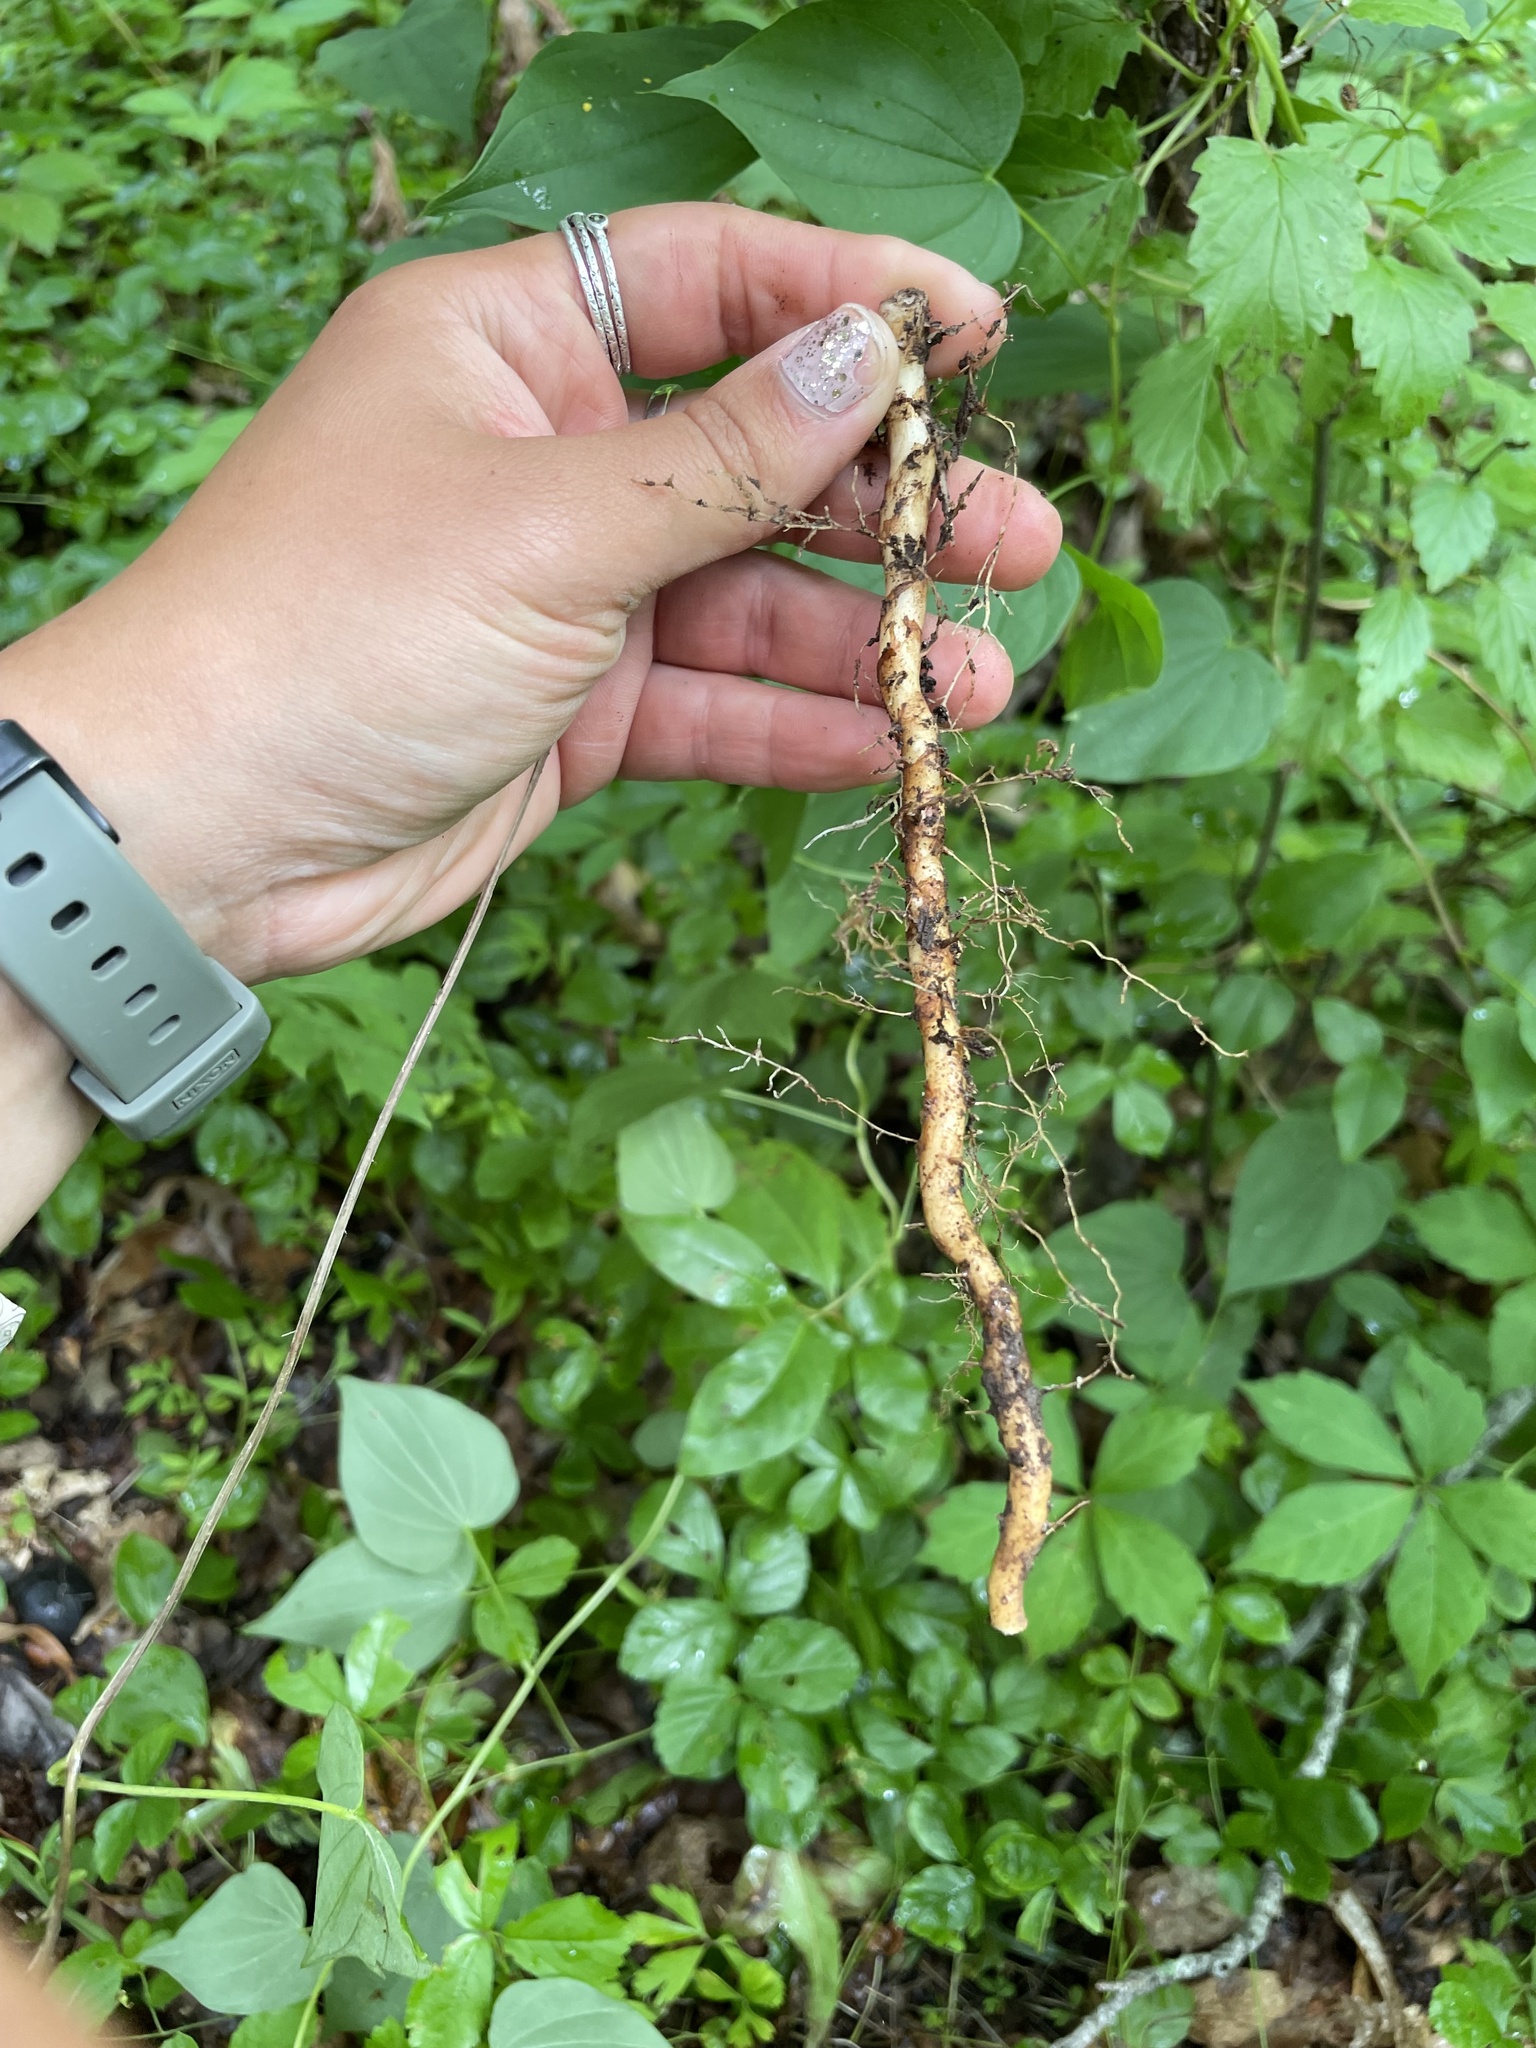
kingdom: Plantae
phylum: Tracheophyta
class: Liliopsida
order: Dioscoreales
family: Dioscoreaceae
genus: Dioscorea
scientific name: Dioscorea villosa
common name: Wild yam
